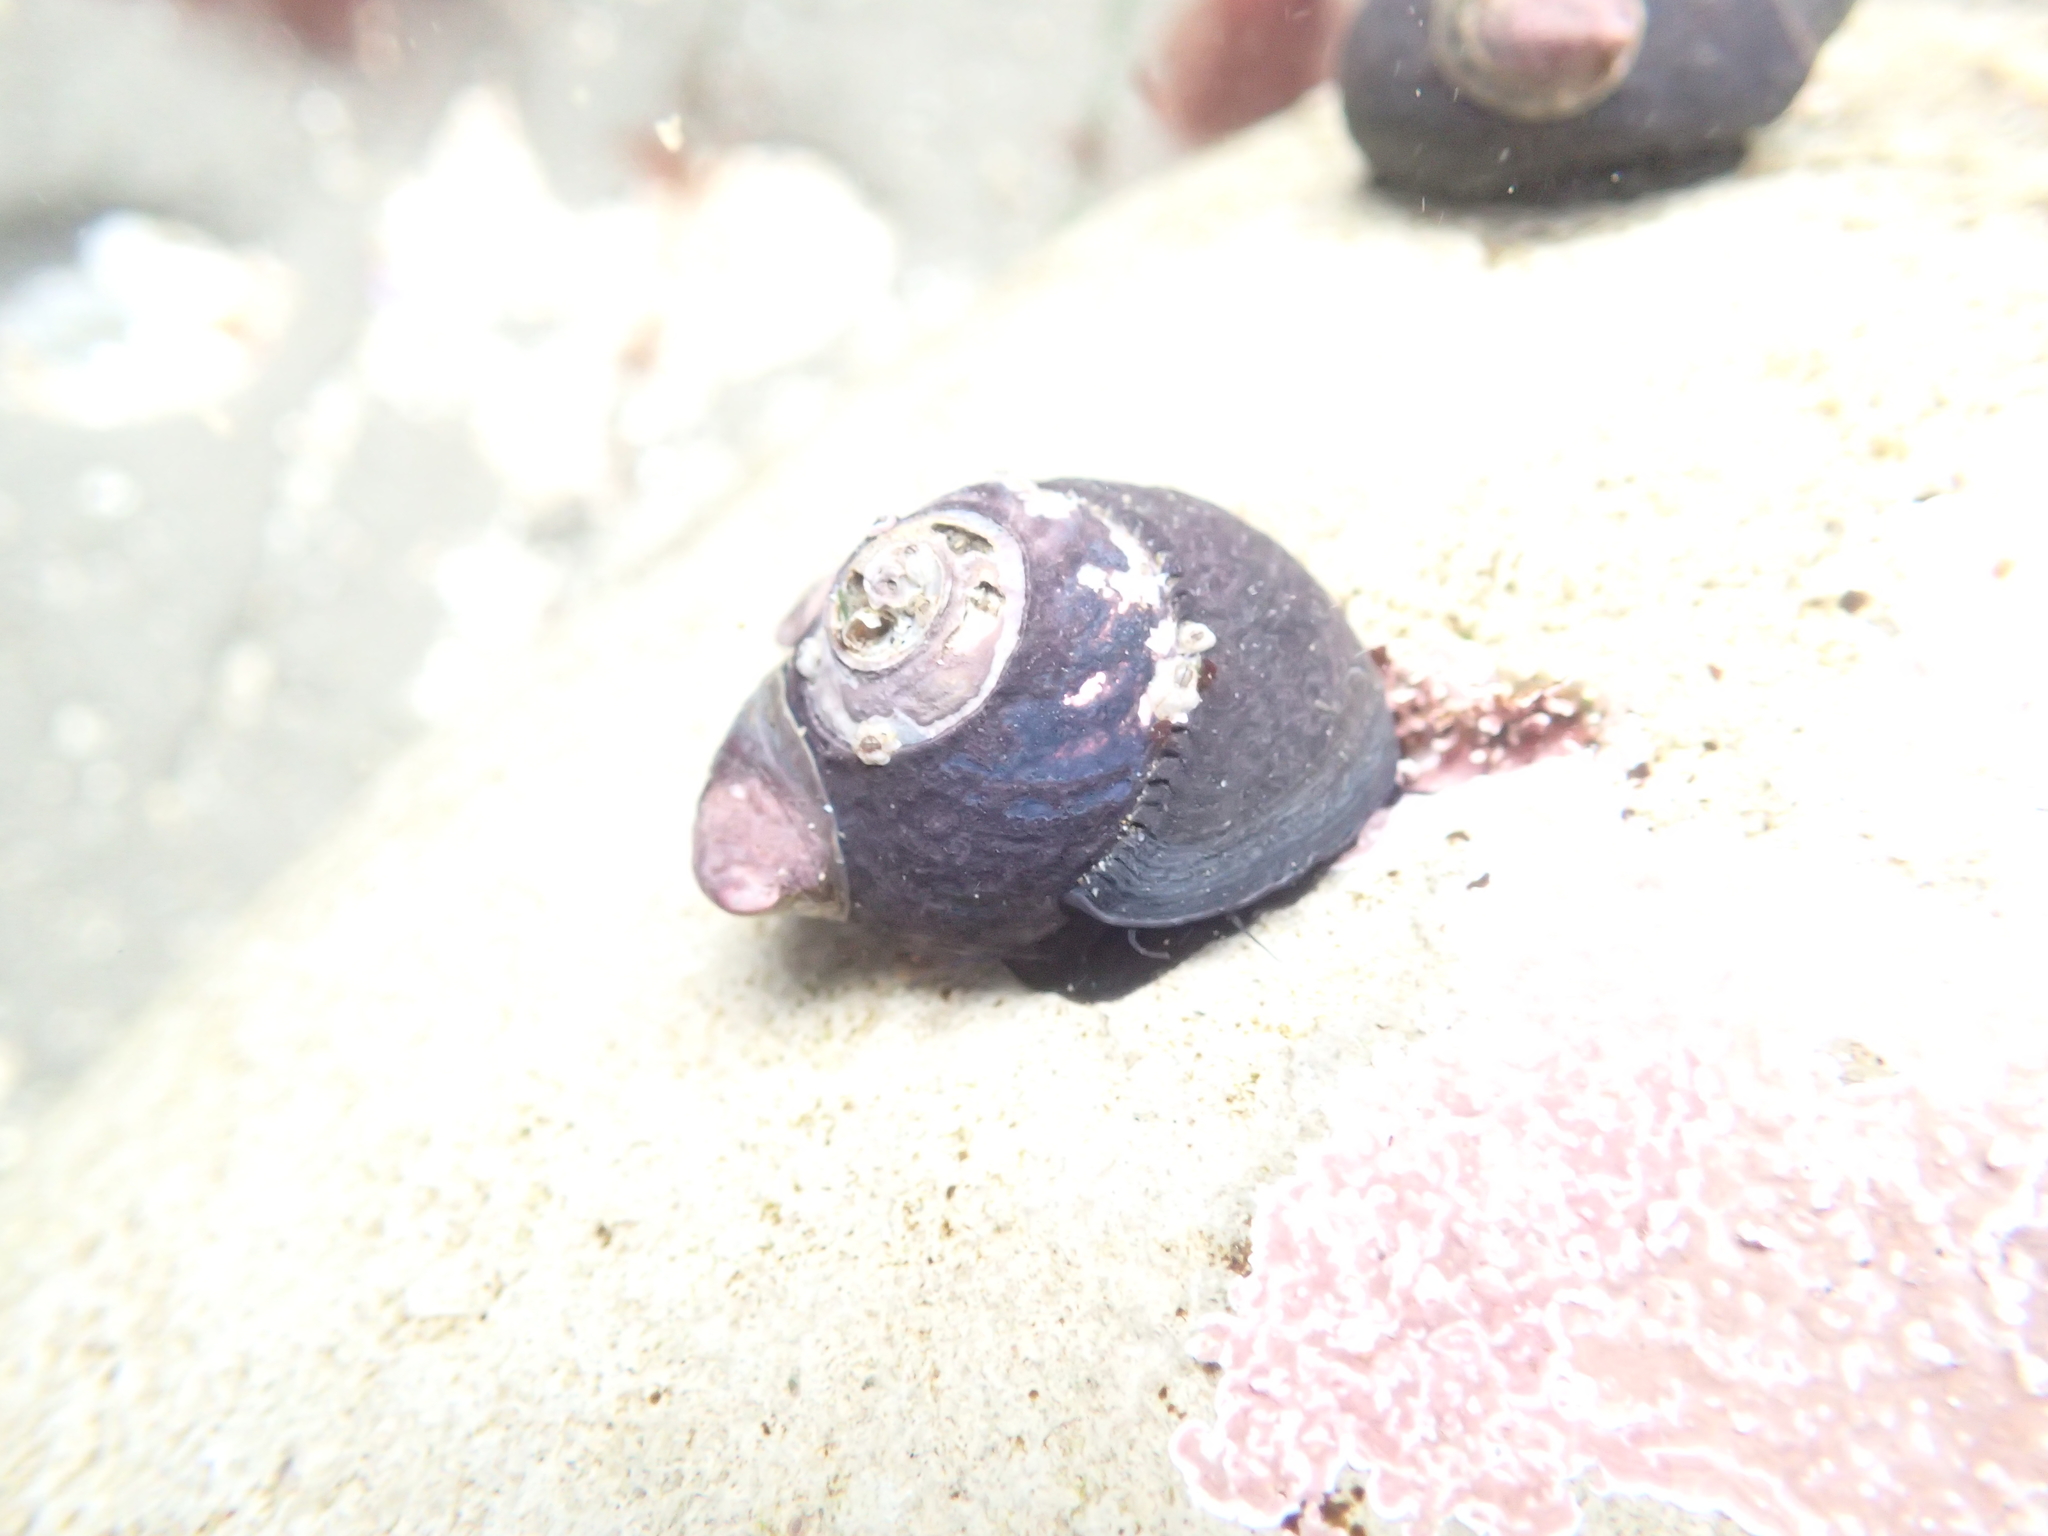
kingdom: Animalia
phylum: Mollusca
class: Gastropoda
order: Littorinimorpha
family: Calyptraeidae
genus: Crepidula
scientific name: Crepidula adunca
